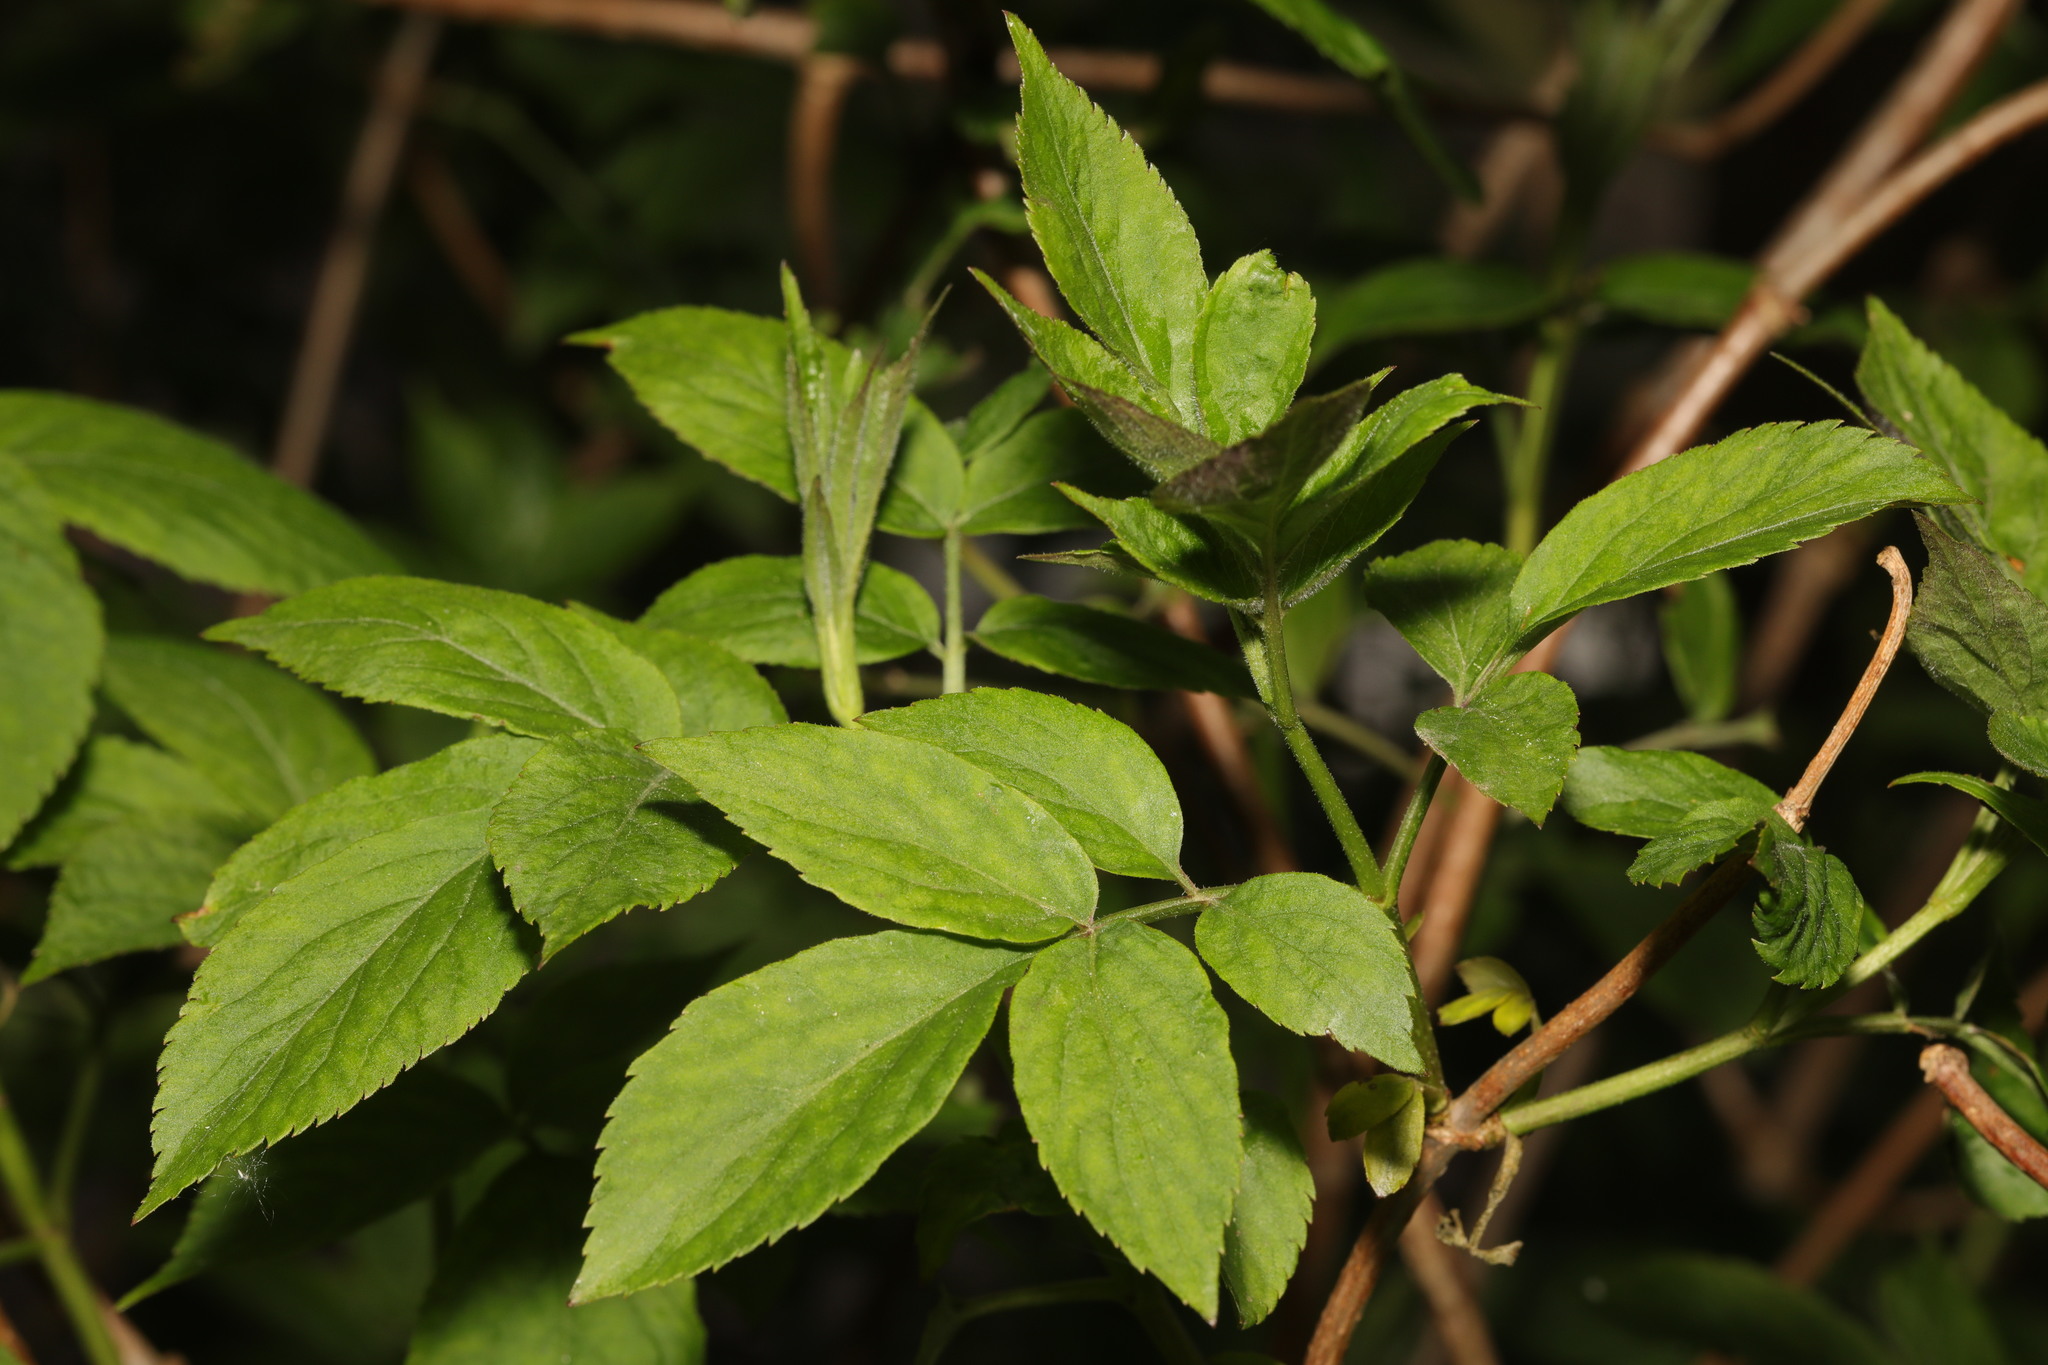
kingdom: Plantae
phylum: Tracheophyta
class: Magnoliopsida
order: Dipsacales
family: Viburnaceae
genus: Sambucus
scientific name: Sambucus nigra
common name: Elder
